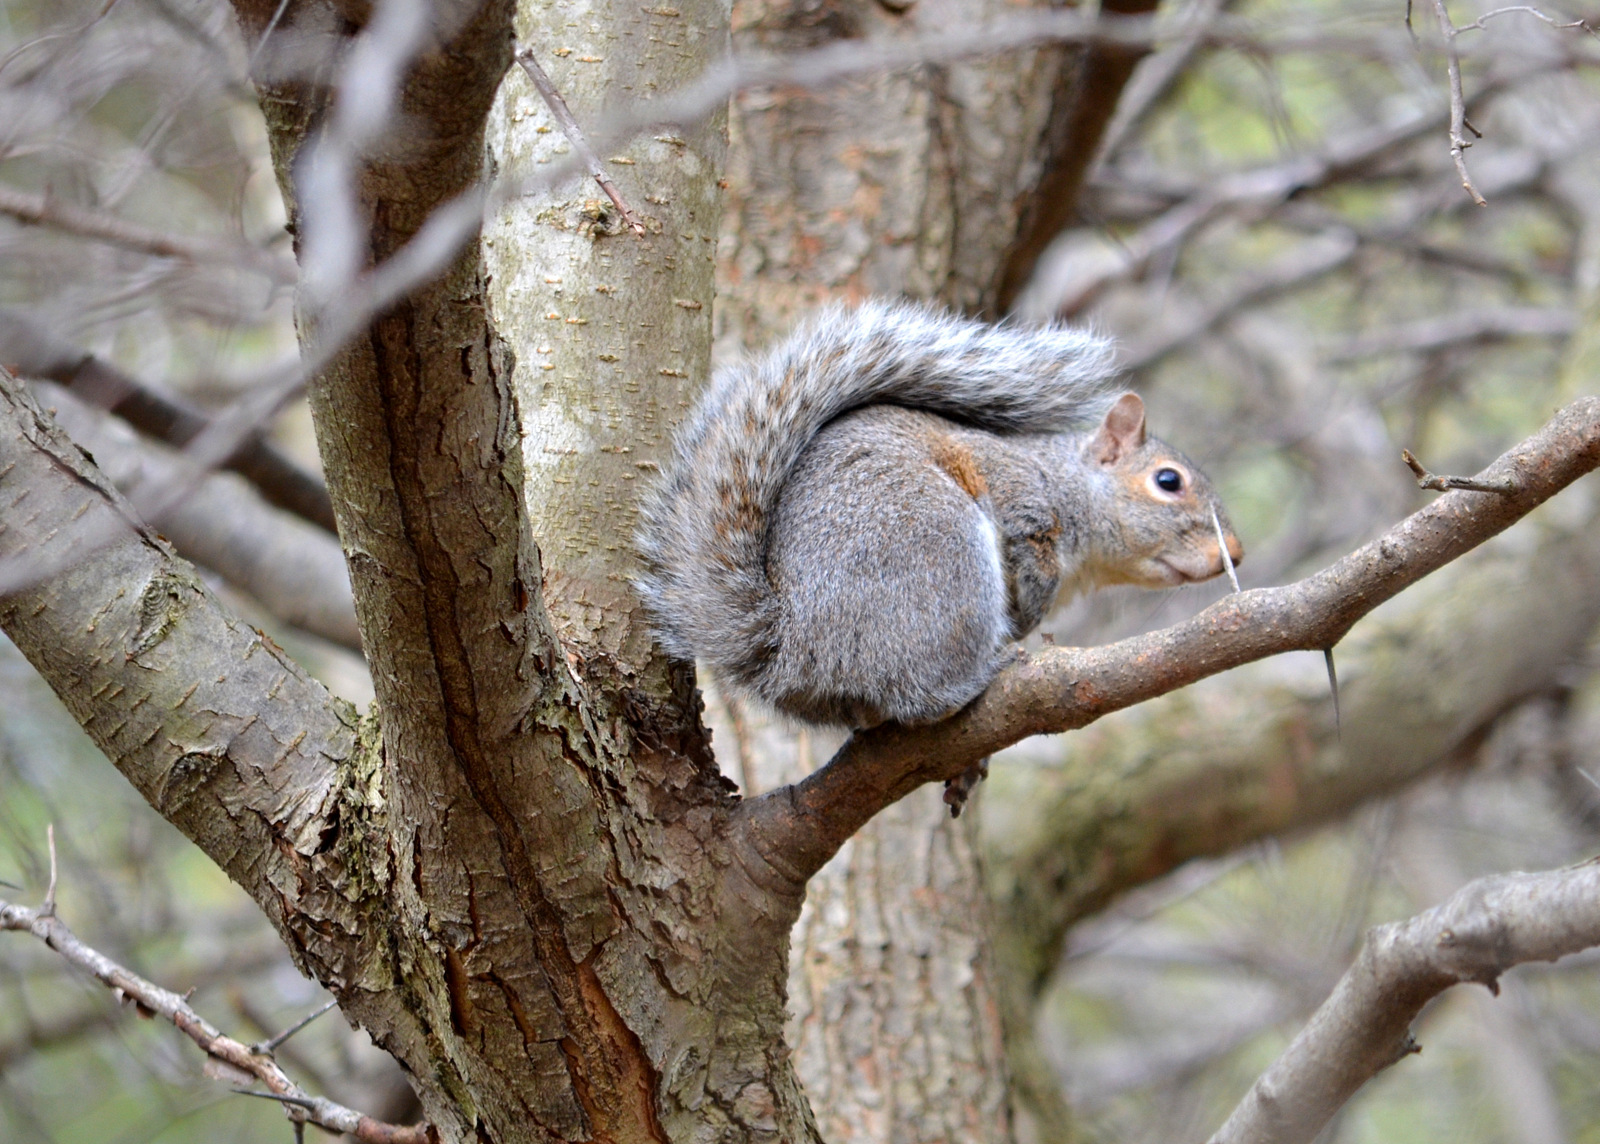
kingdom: Animalia
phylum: Chordata
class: Mammalia
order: Rodentia
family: Sciuridae
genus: Sciurus
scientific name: Sciurus carolinensis
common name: Eastern gray squirrel
